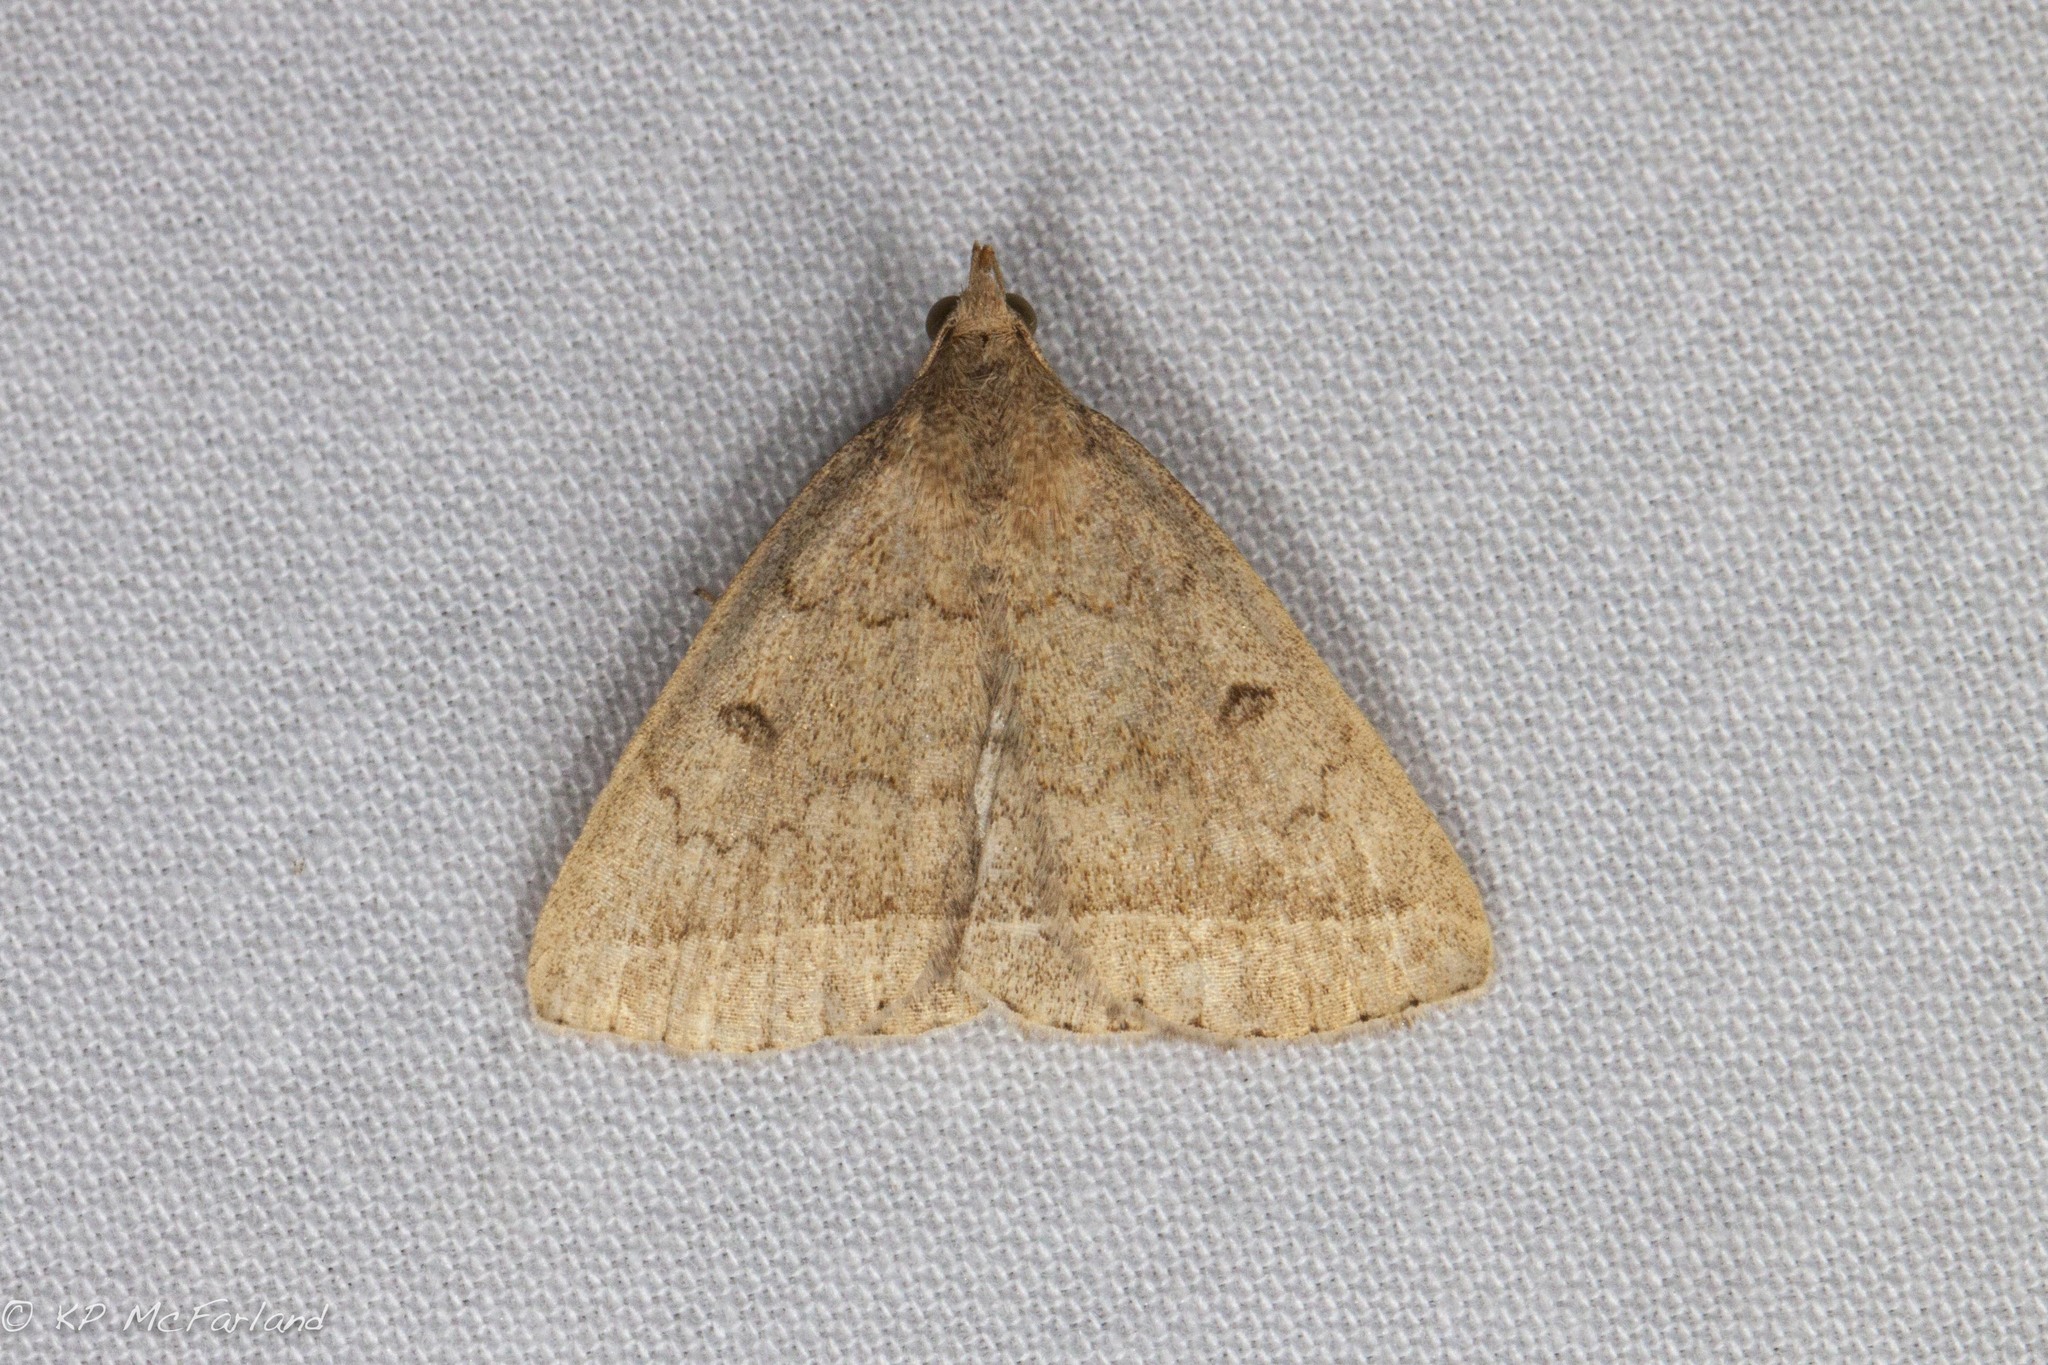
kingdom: Animalia
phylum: Arthropoda
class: Insecta
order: Lepidoptera
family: Erebidae
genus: Zanclognatha
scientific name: Zanclognatha jacchusalis
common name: Yellowish zanclognatha
